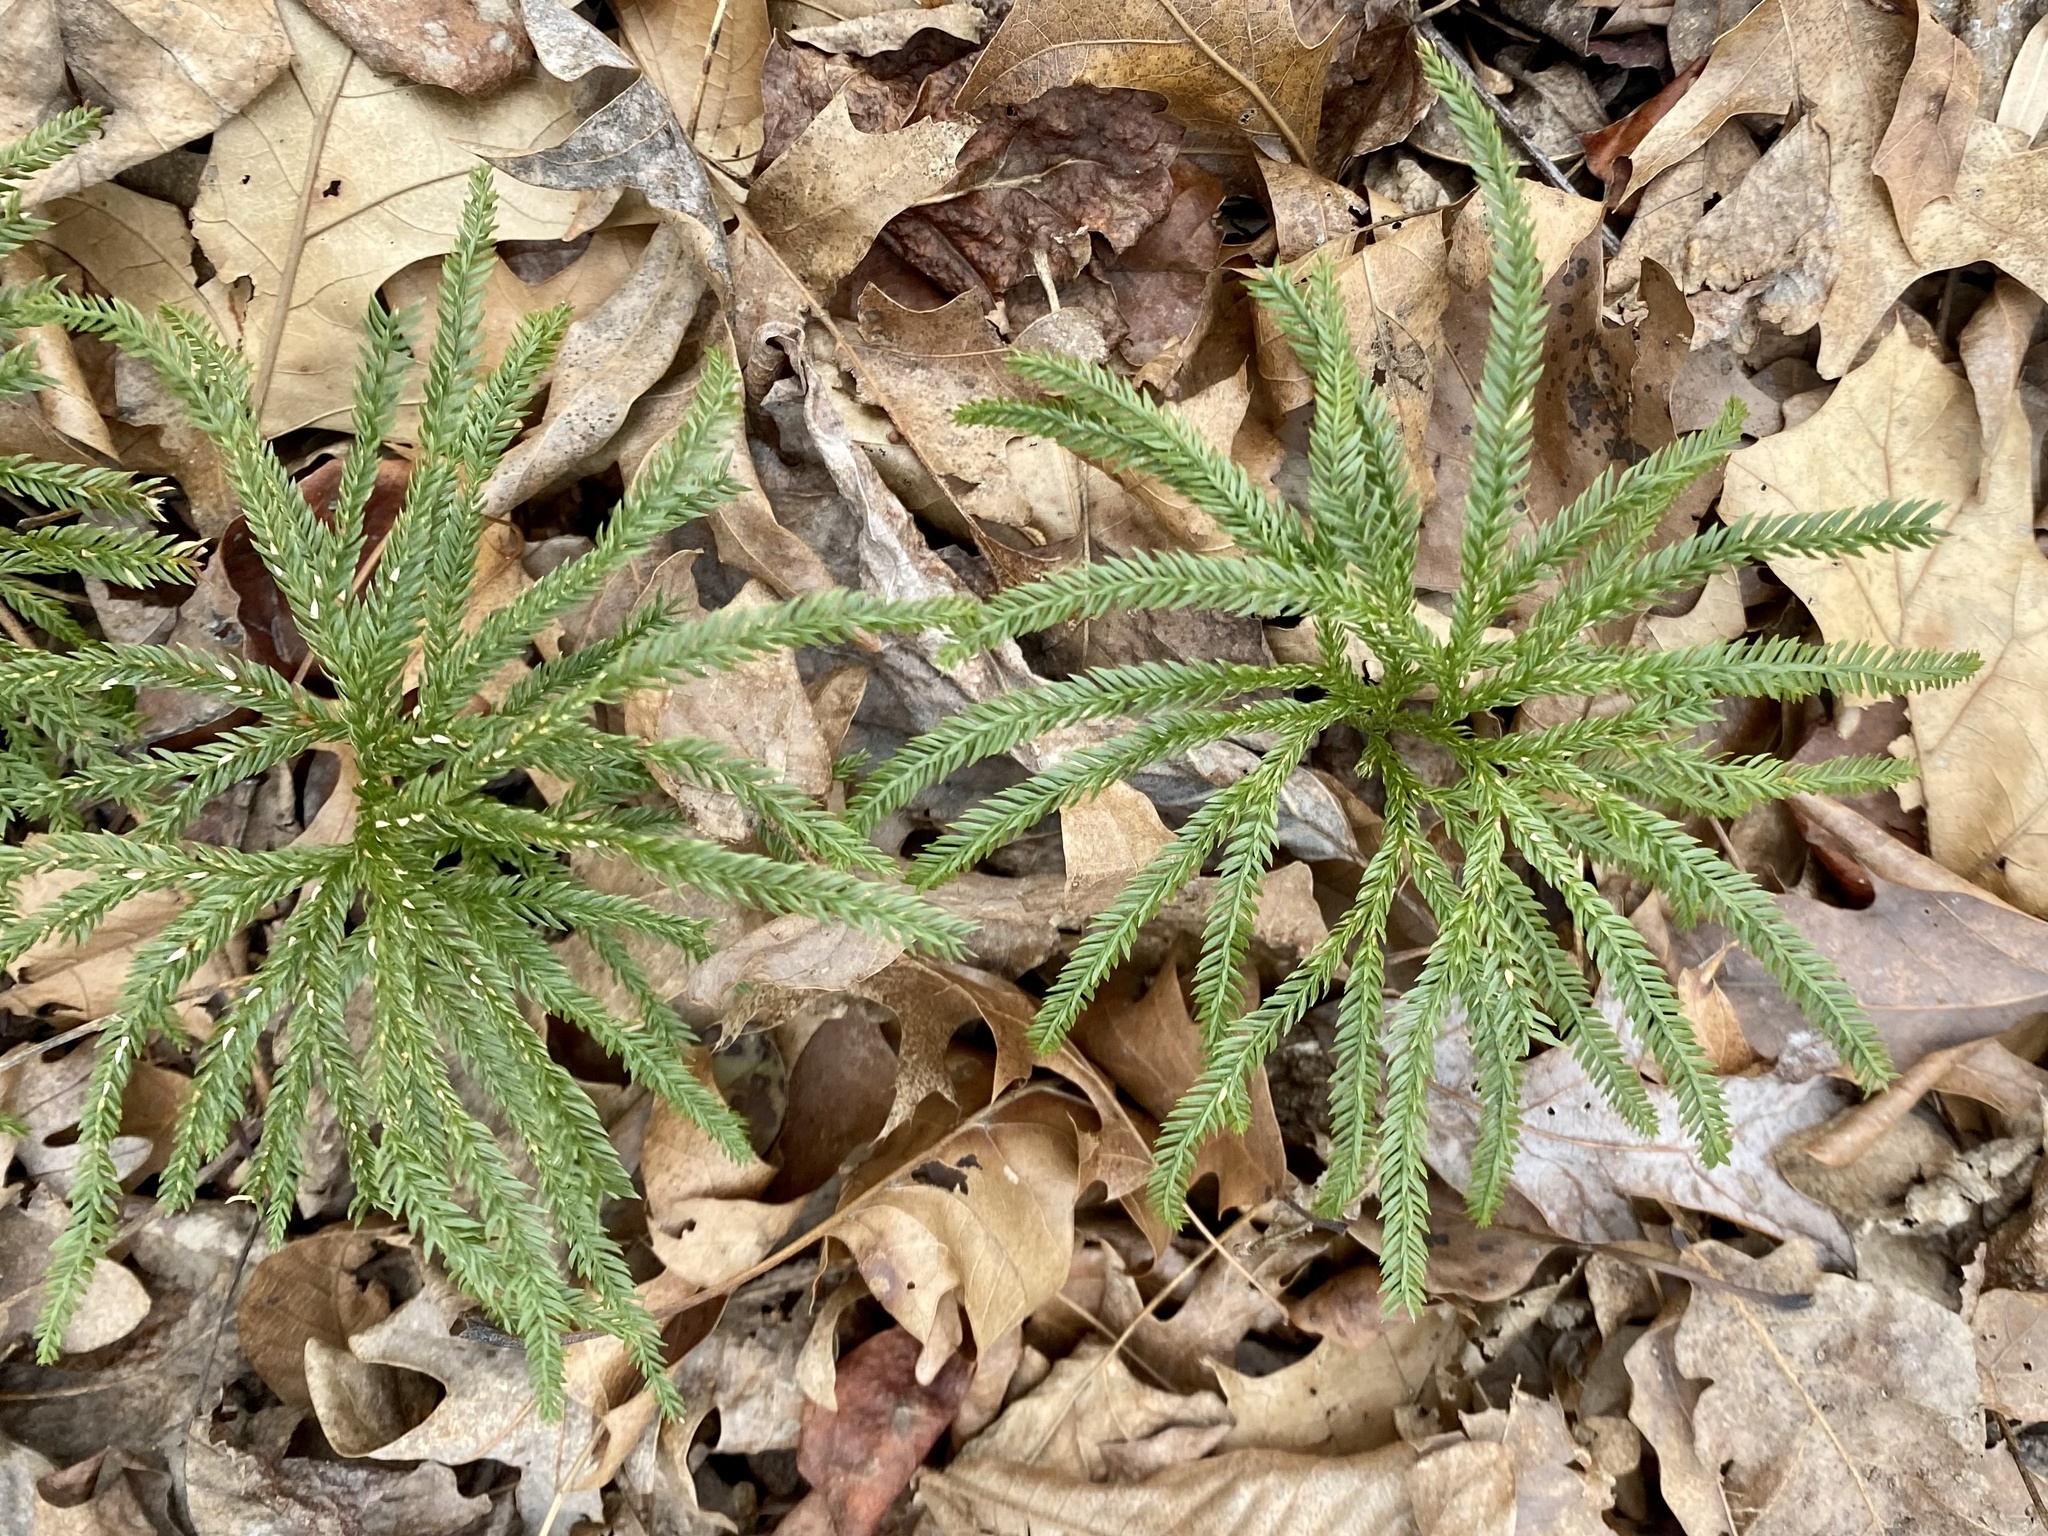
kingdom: Plantae
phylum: Tracheophyta
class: Lycopodiopsida
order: Lycopodiales
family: Lycopodiaceae
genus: Dendrolycopodium
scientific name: Dendrolycopodium obscurum
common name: Common ground-pine
